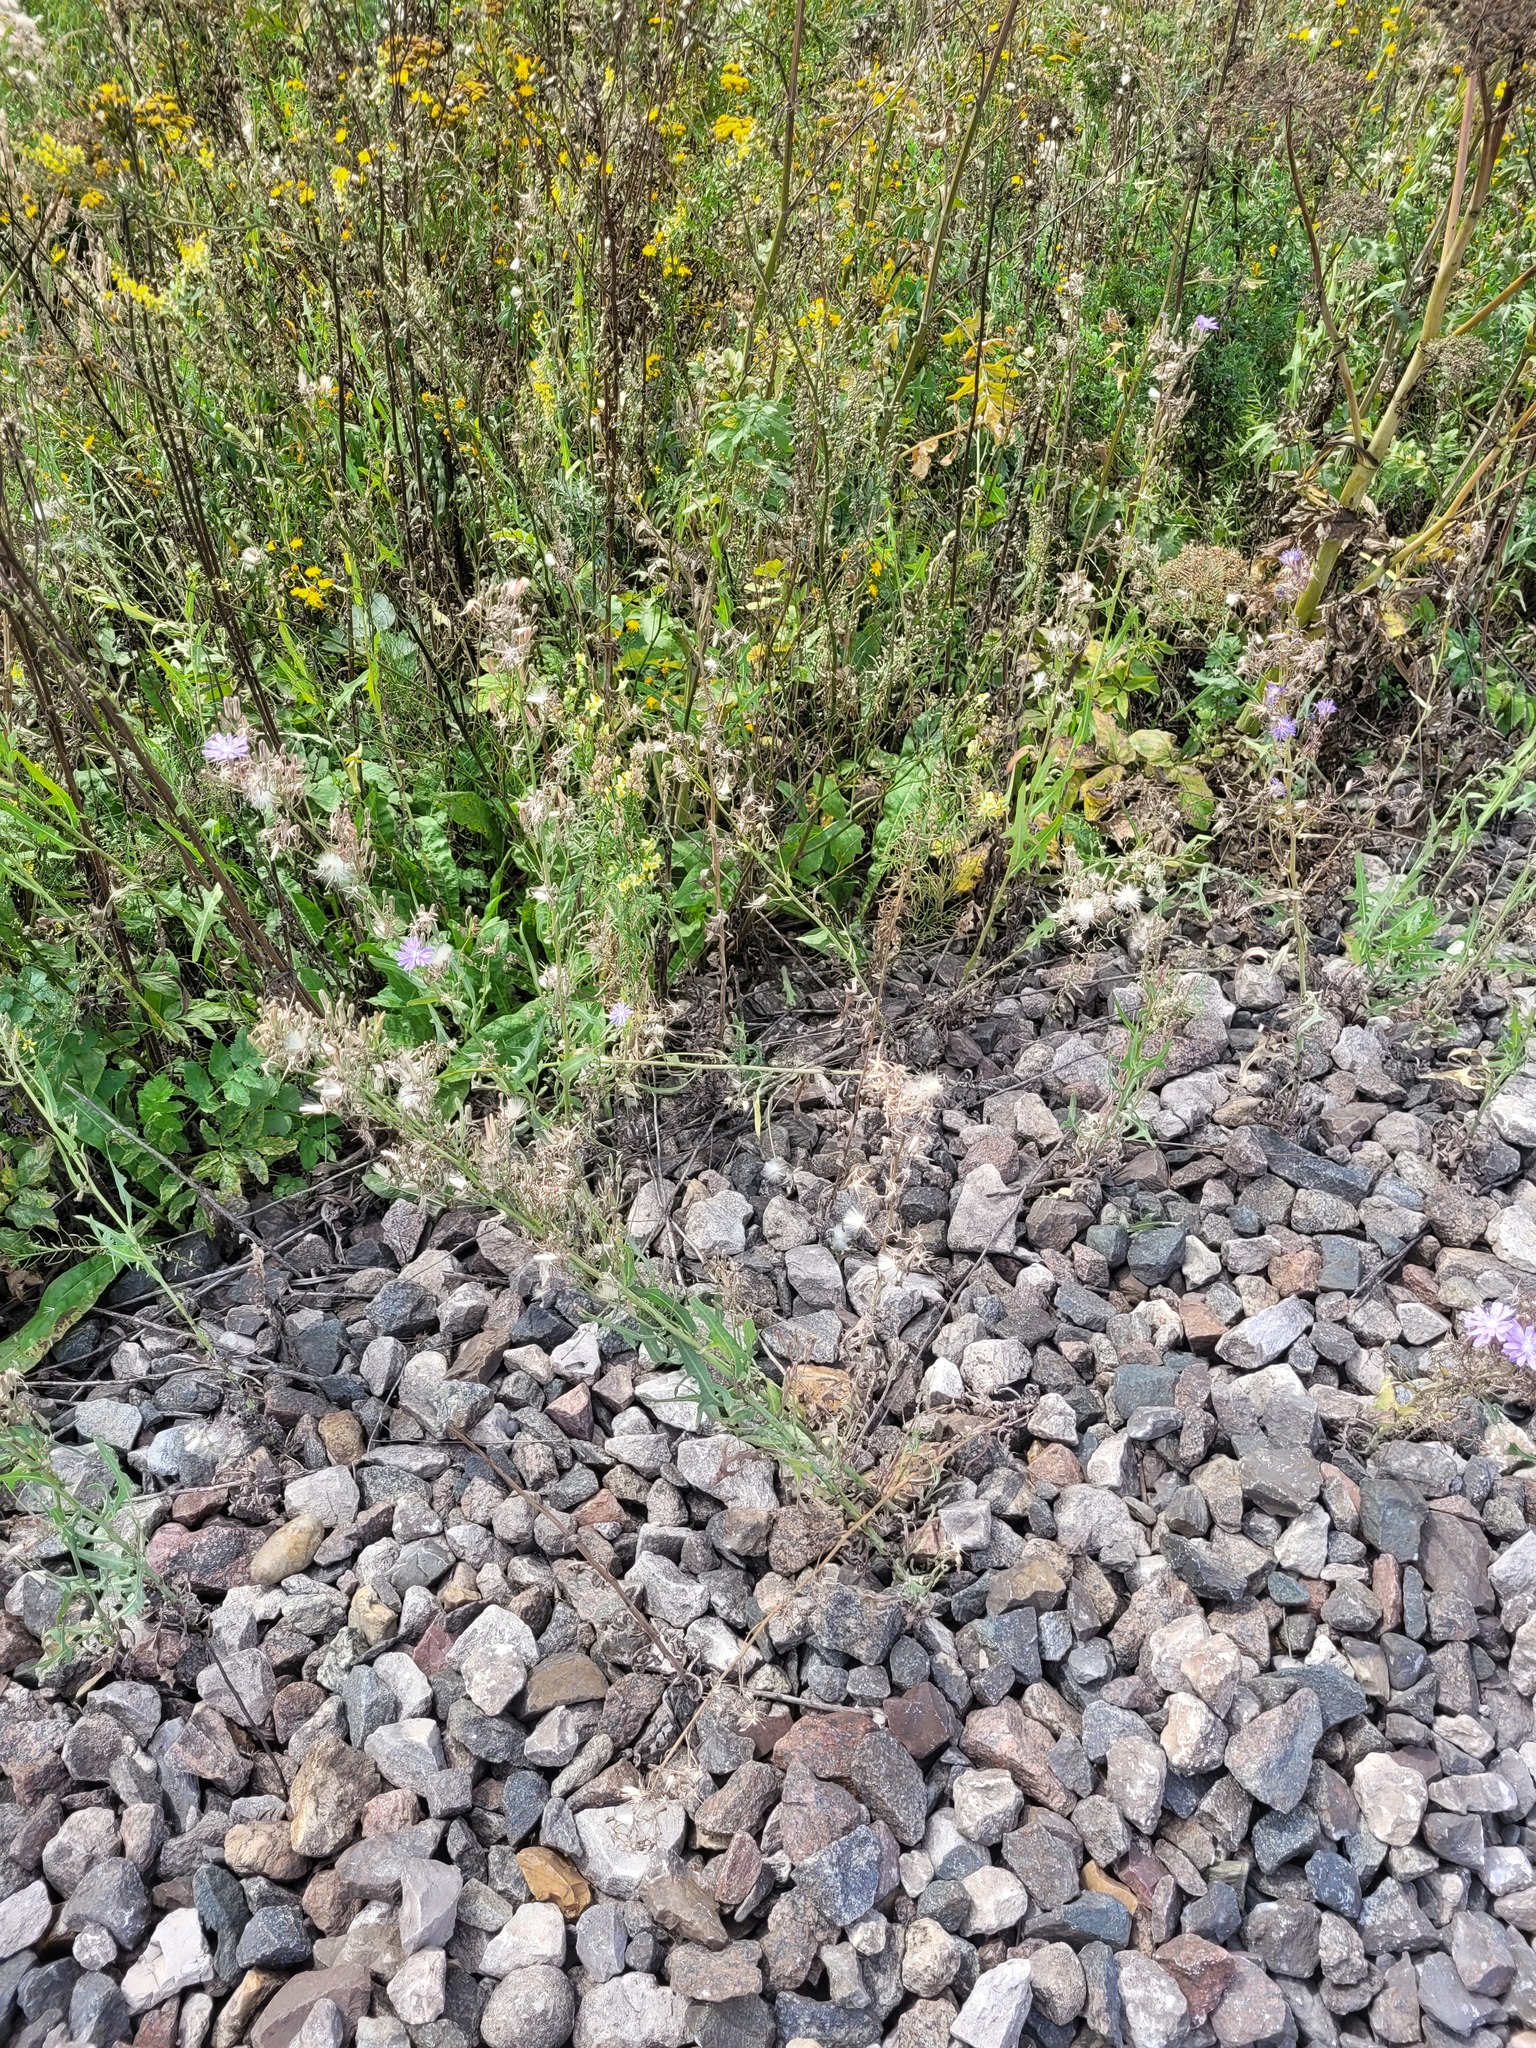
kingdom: Plantae
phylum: Tracheophyta
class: Magnoliopsida
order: Asterales
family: Asteraceae
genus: Lactuca
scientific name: Lactuca tatarica
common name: Blue lettuce
